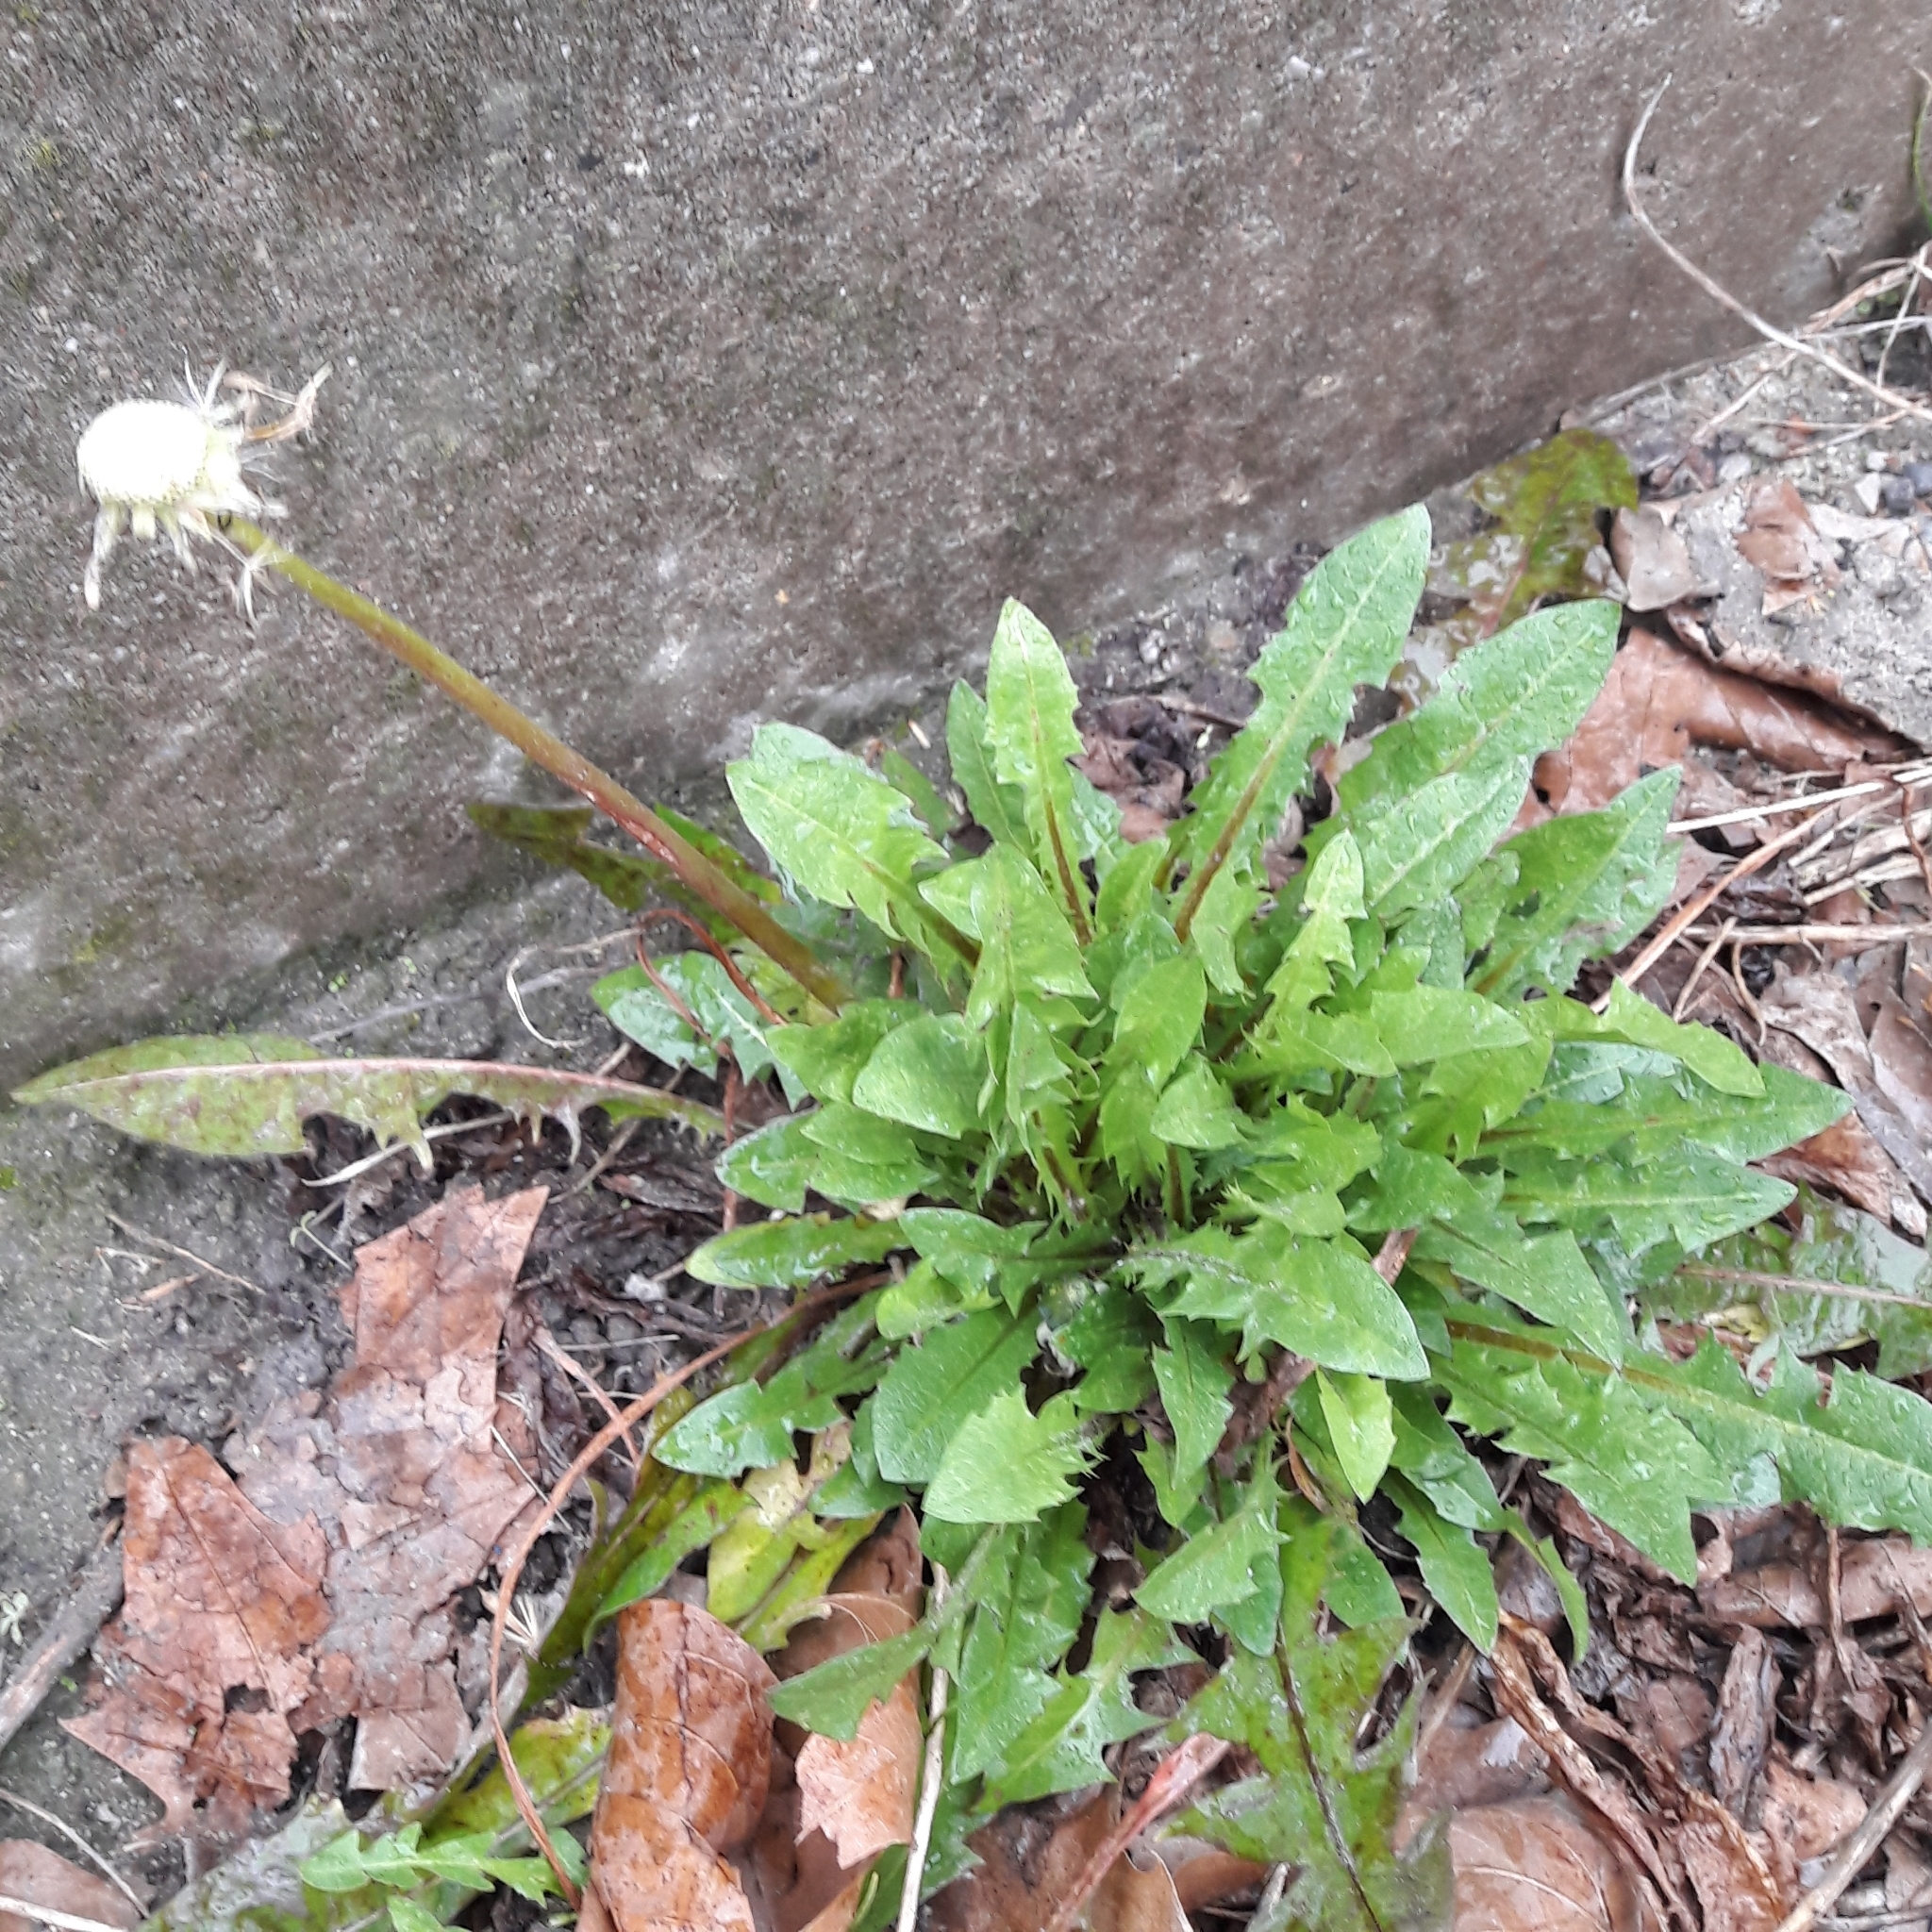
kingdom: Plantae
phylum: Tracheophyta
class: Magnoliopsida
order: Asterales
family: Asteraceae
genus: Taraxacum
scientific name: Taraxacum officinale
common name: Common dandelion
